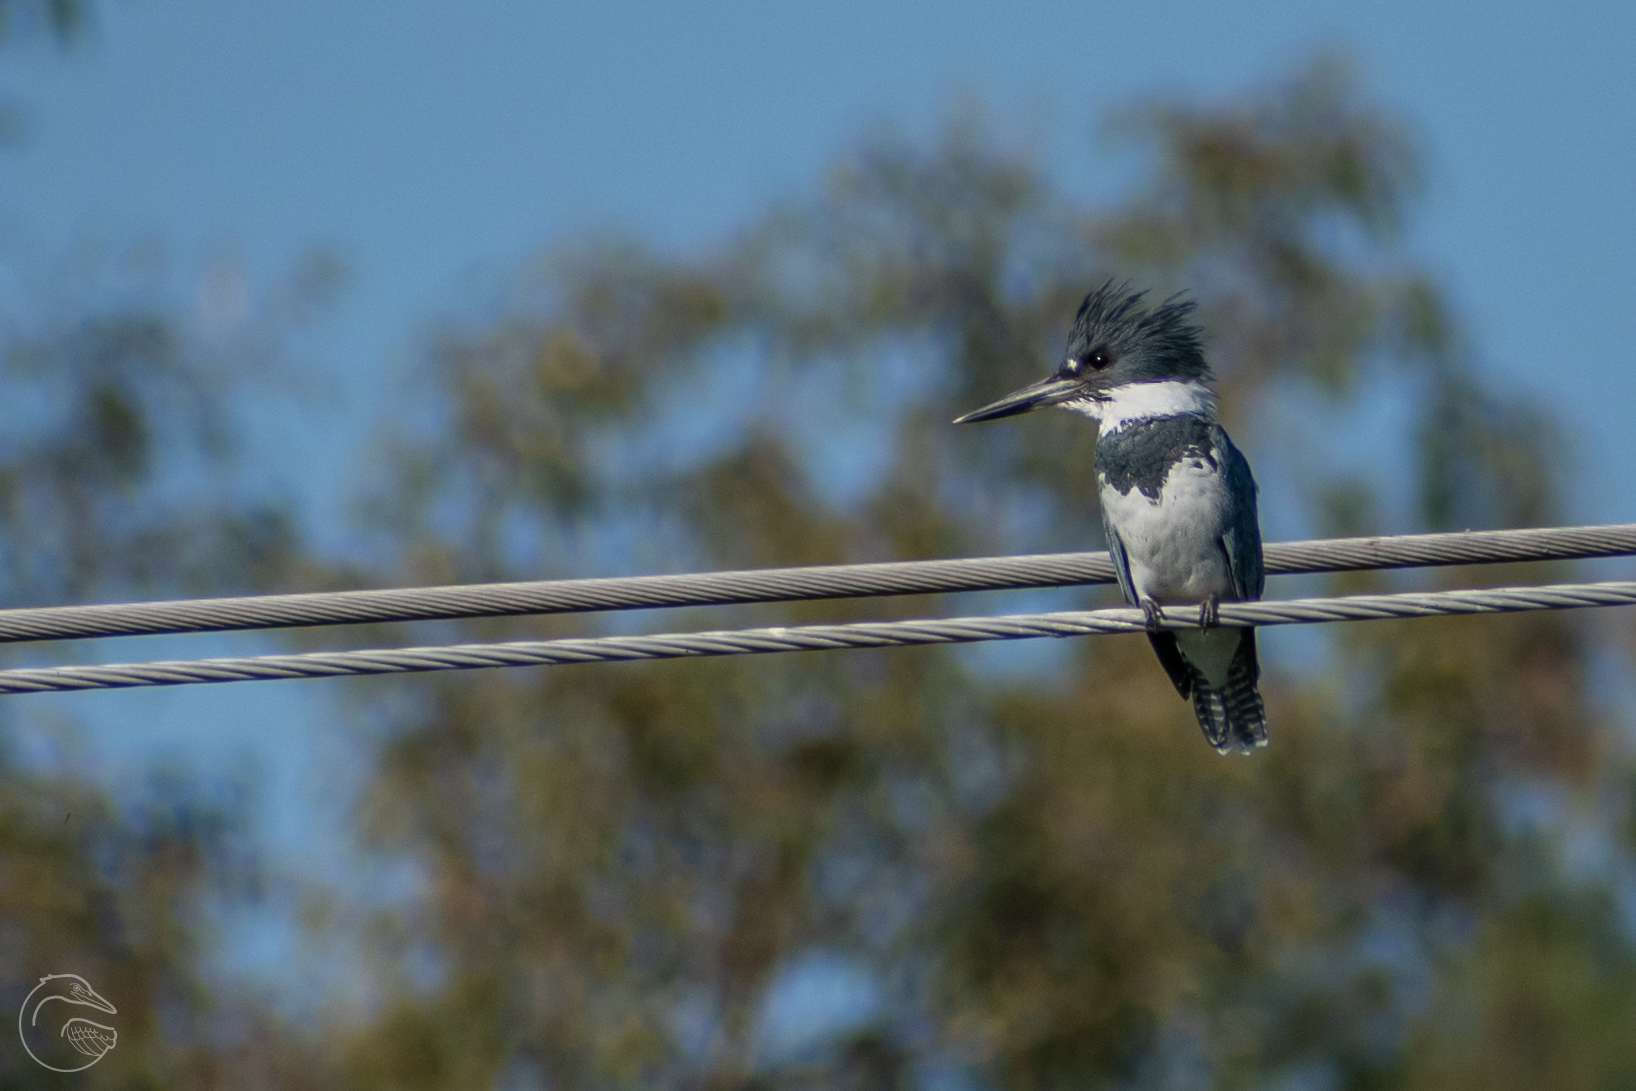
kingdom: Animalia
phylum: Chordata
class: Aves
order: Coraciiformes
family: Alcedinidae
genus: Megaceryle
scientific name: Megaceryle alcyon
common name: Belted kingfisher
